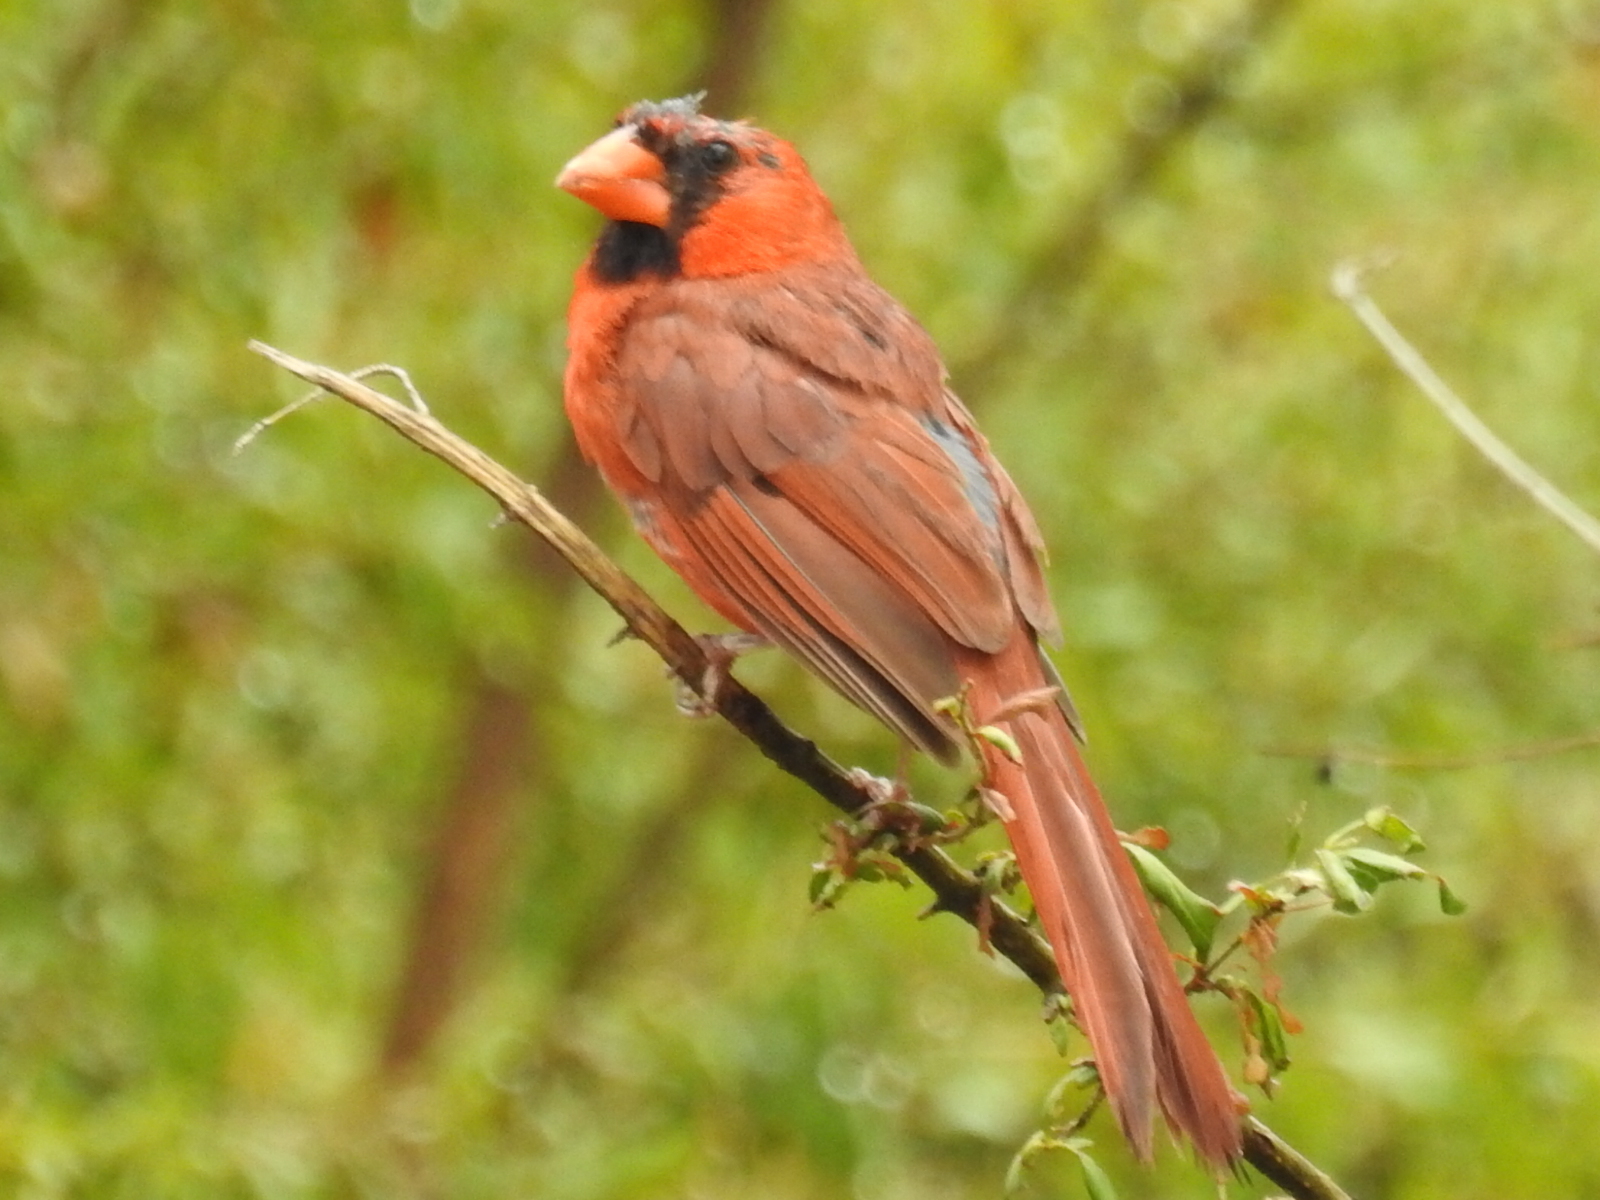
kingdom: Animalia
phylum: Chordata
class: Aves
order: Passeriformes
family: Cardinalidae
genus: Cardinalis
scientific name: Cardinalis cardinalis
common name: Northern cardinal
